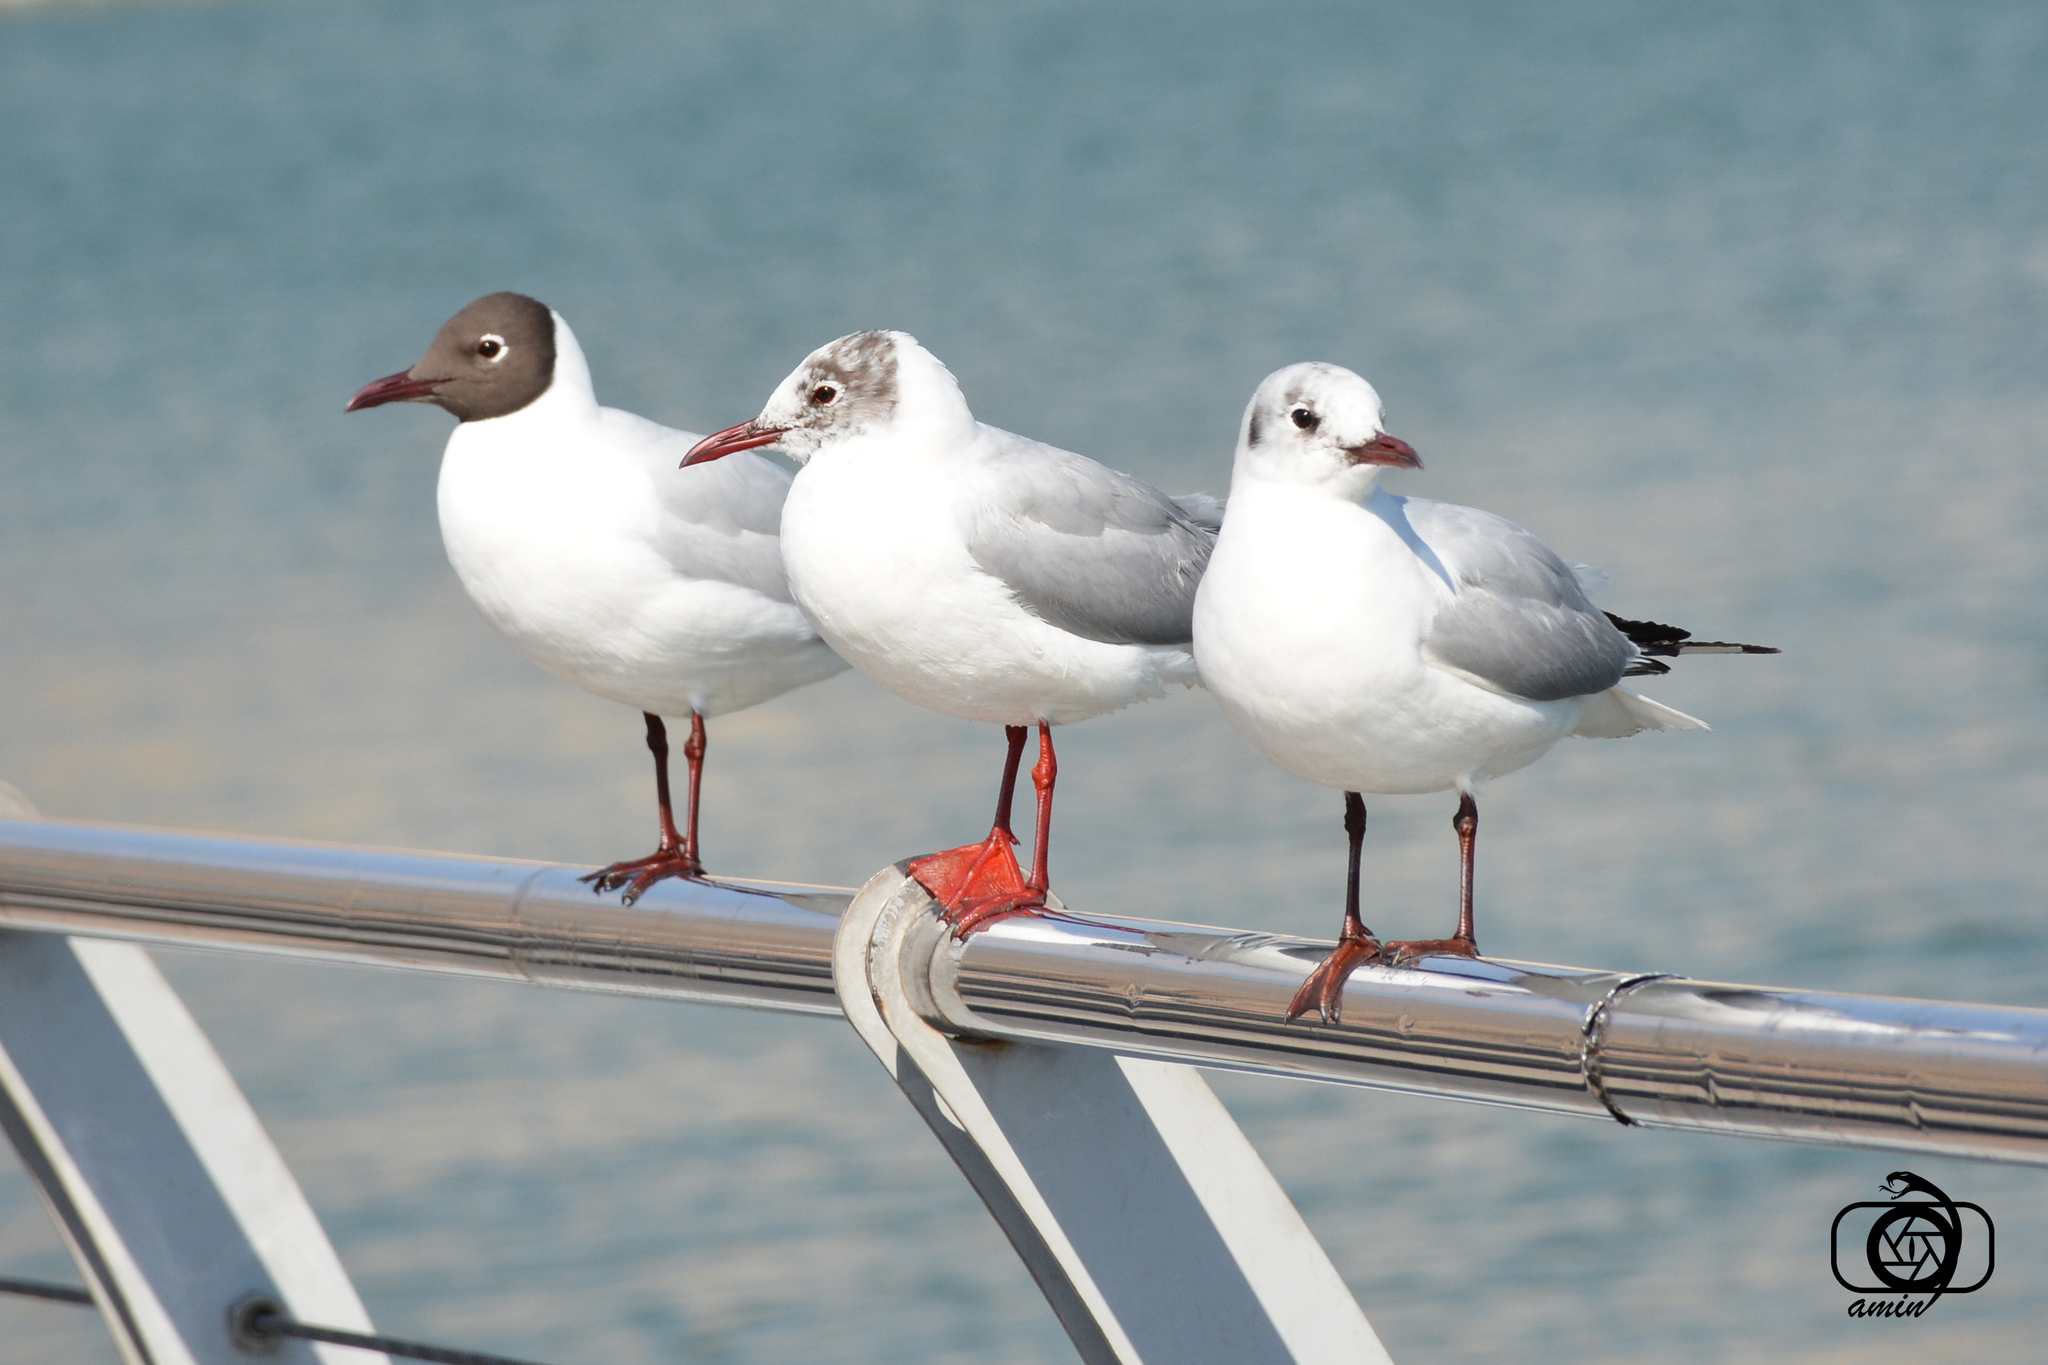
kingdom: Animalia
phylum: Chordata
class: Aves
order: Charadriiformes
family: Laridae
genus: Chroicocephalus
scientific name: Chroicocephalus ridibundus
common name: Black-headed gull
